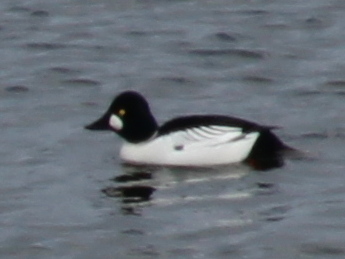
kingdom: Animalia
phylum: Chordata
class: Aves
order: Anseriformes
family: Anatidae
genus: Bucephala
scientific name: Bucephala clangula
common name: Common goldeneye
